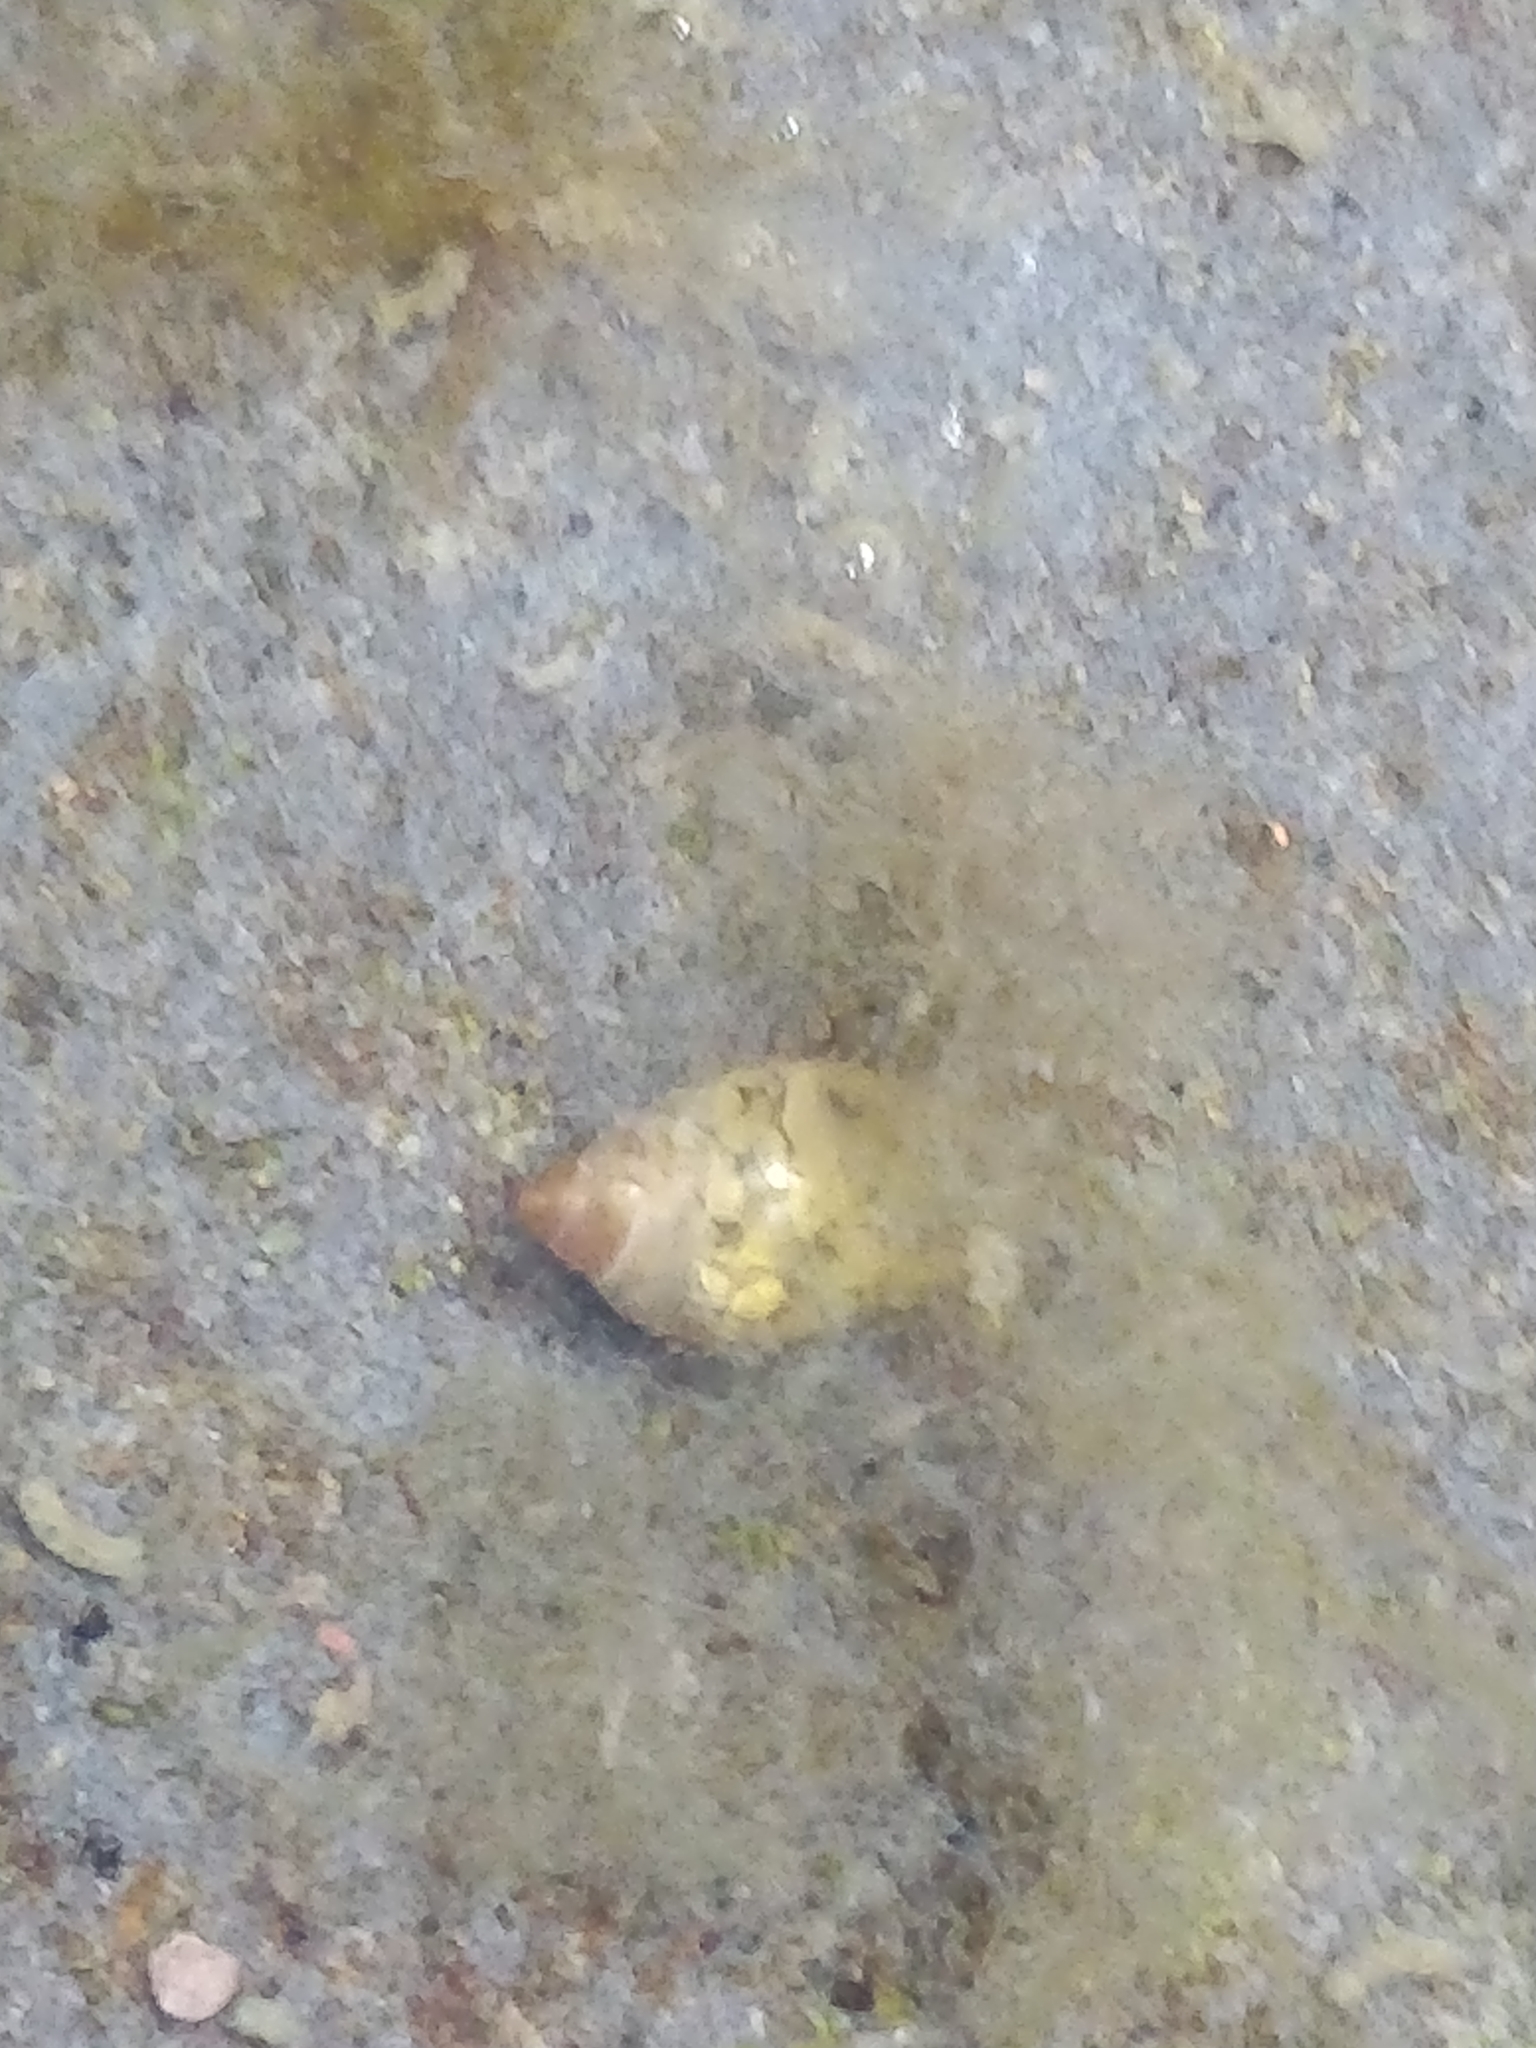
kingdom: Animalia
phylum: Mollusca
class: Gastropoda
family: Physidae
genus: Physella
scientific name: Physella acuta
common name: European physa
